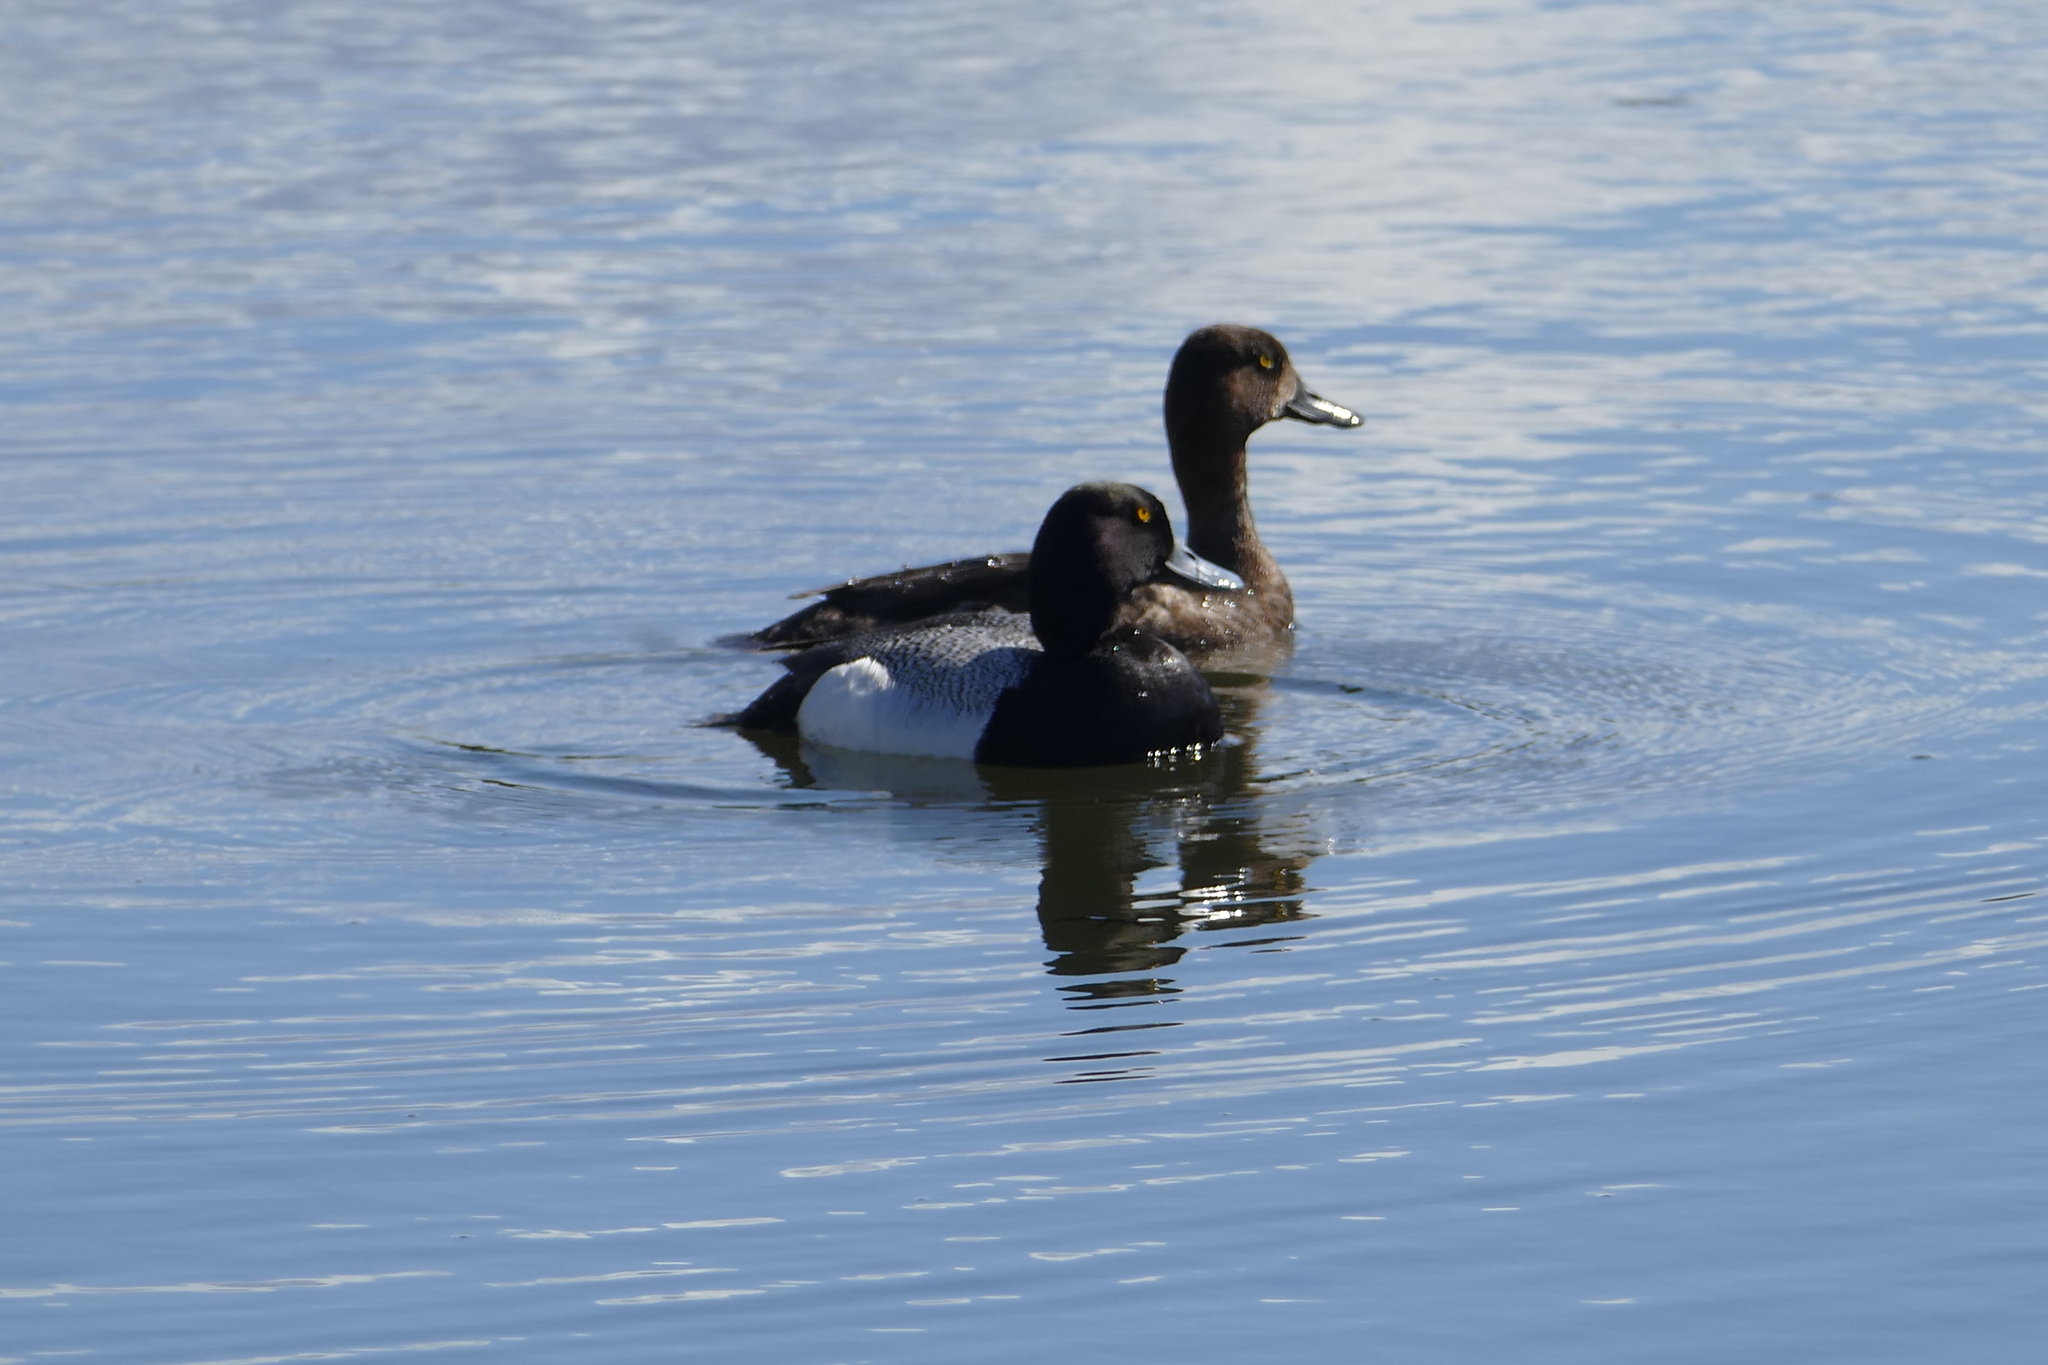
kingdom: Animalia
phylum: Chordata
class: Aves
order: Anseriformes
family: Anatidae
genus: Aythya
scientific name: Aythya marila
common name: Greater scaup
